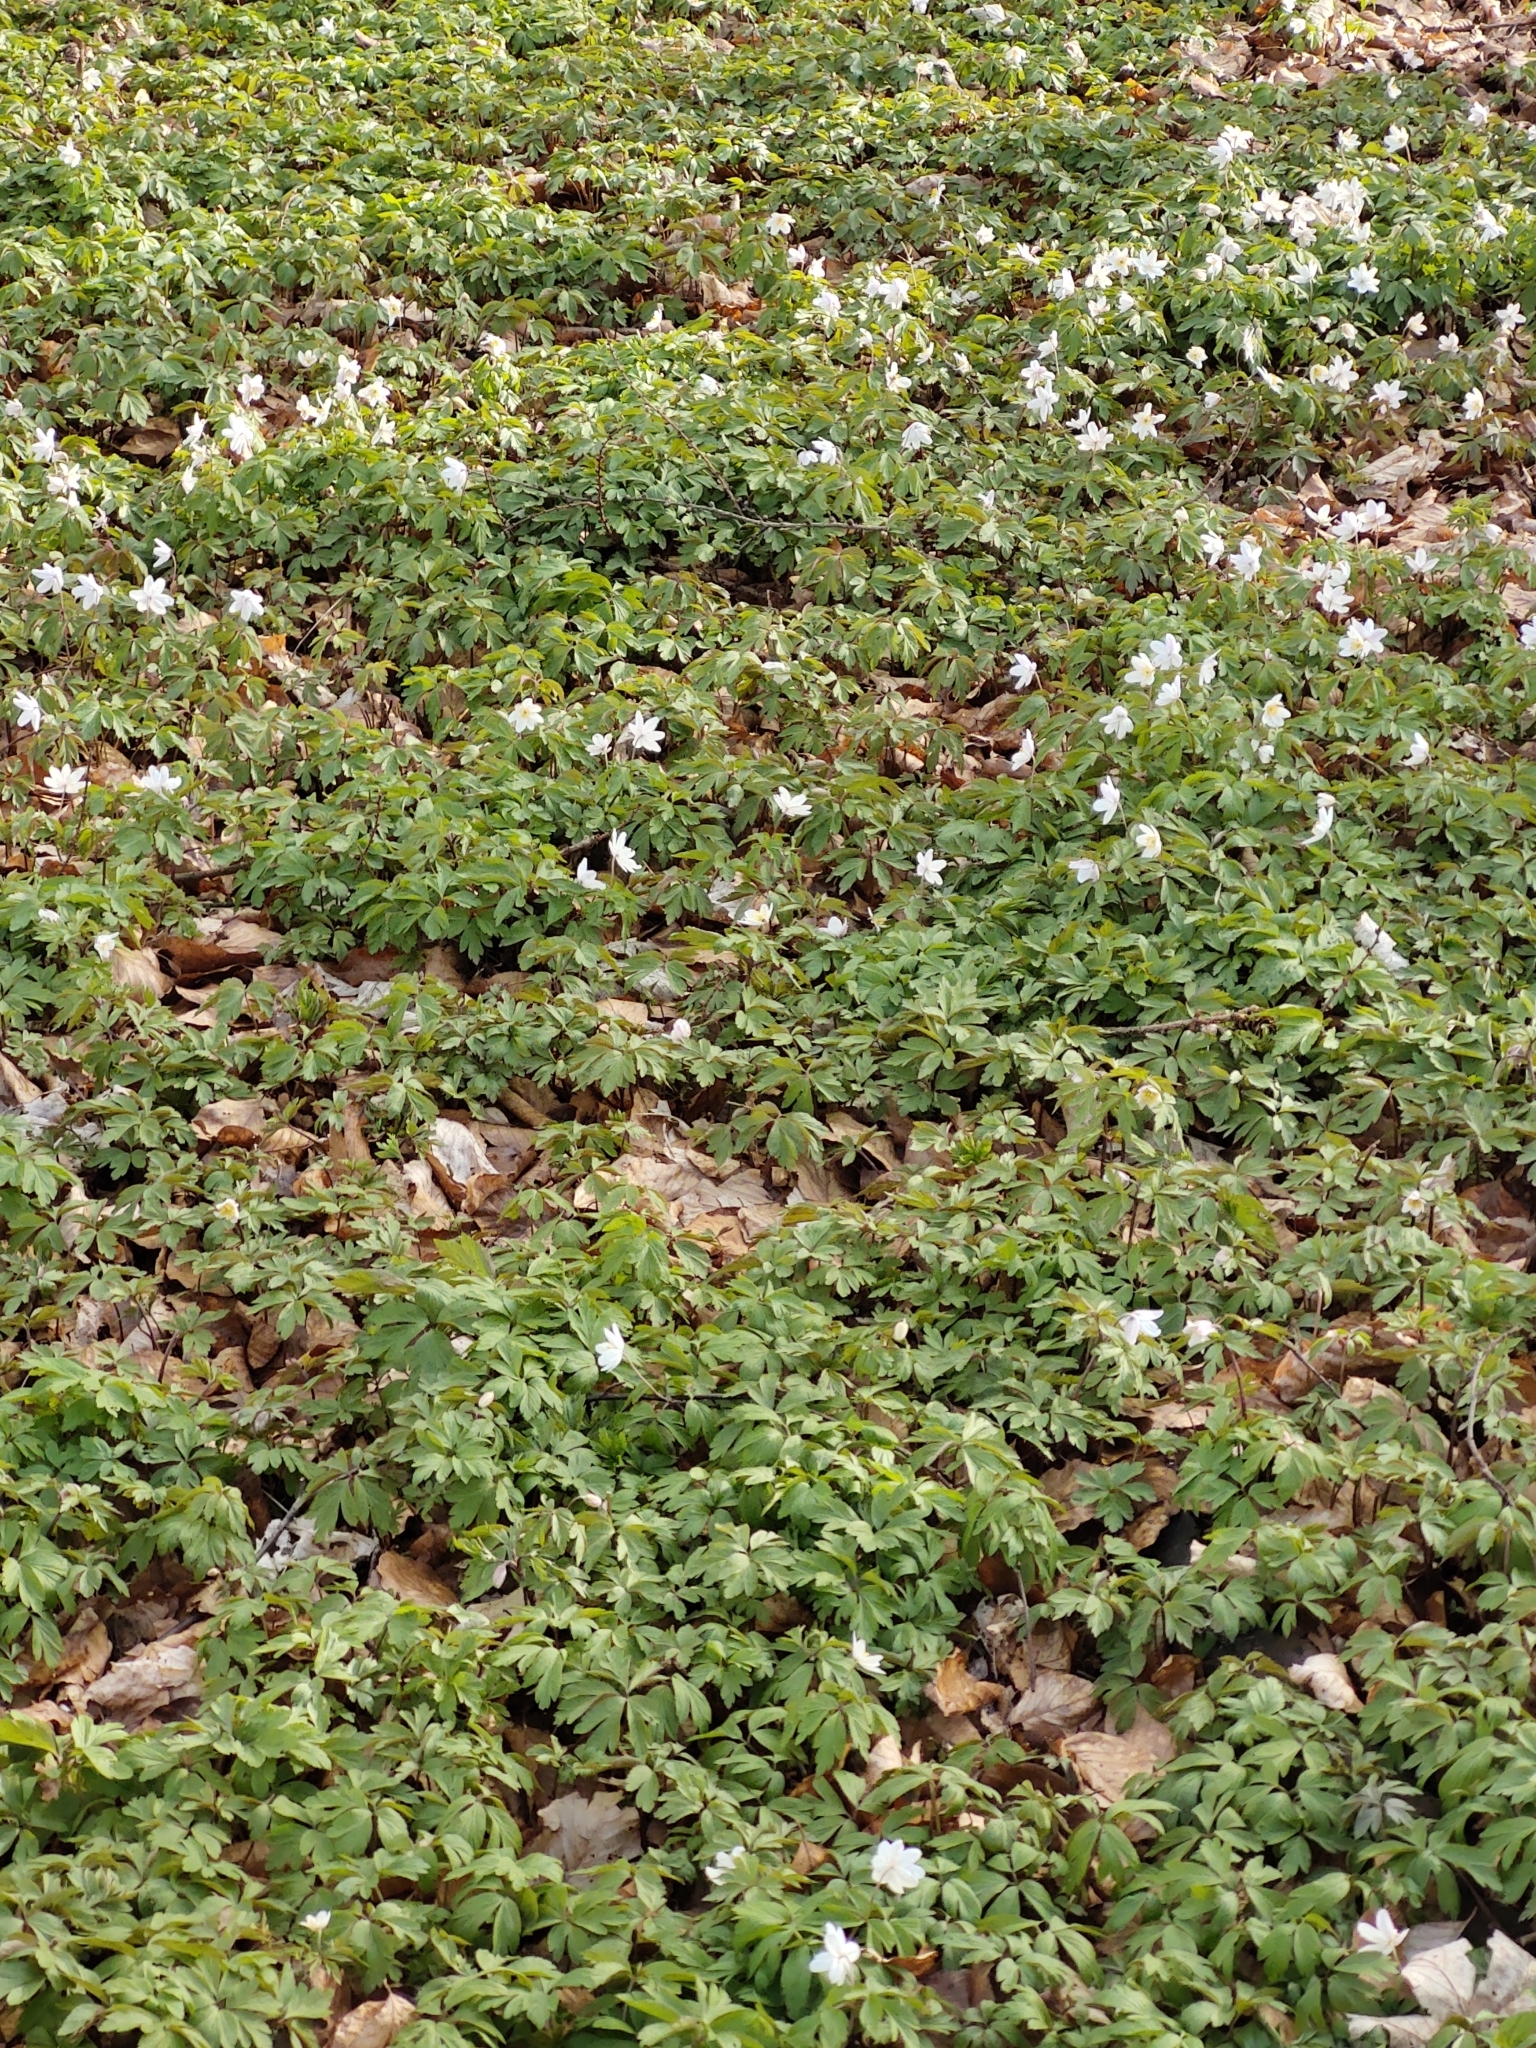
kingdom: Plantae
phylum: Tracheophyta
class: Magnoliopsida
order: Ranunculales
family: Ranunculaceae
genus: Anemone
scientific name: Anemone nemorosa
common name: Wood anemone
